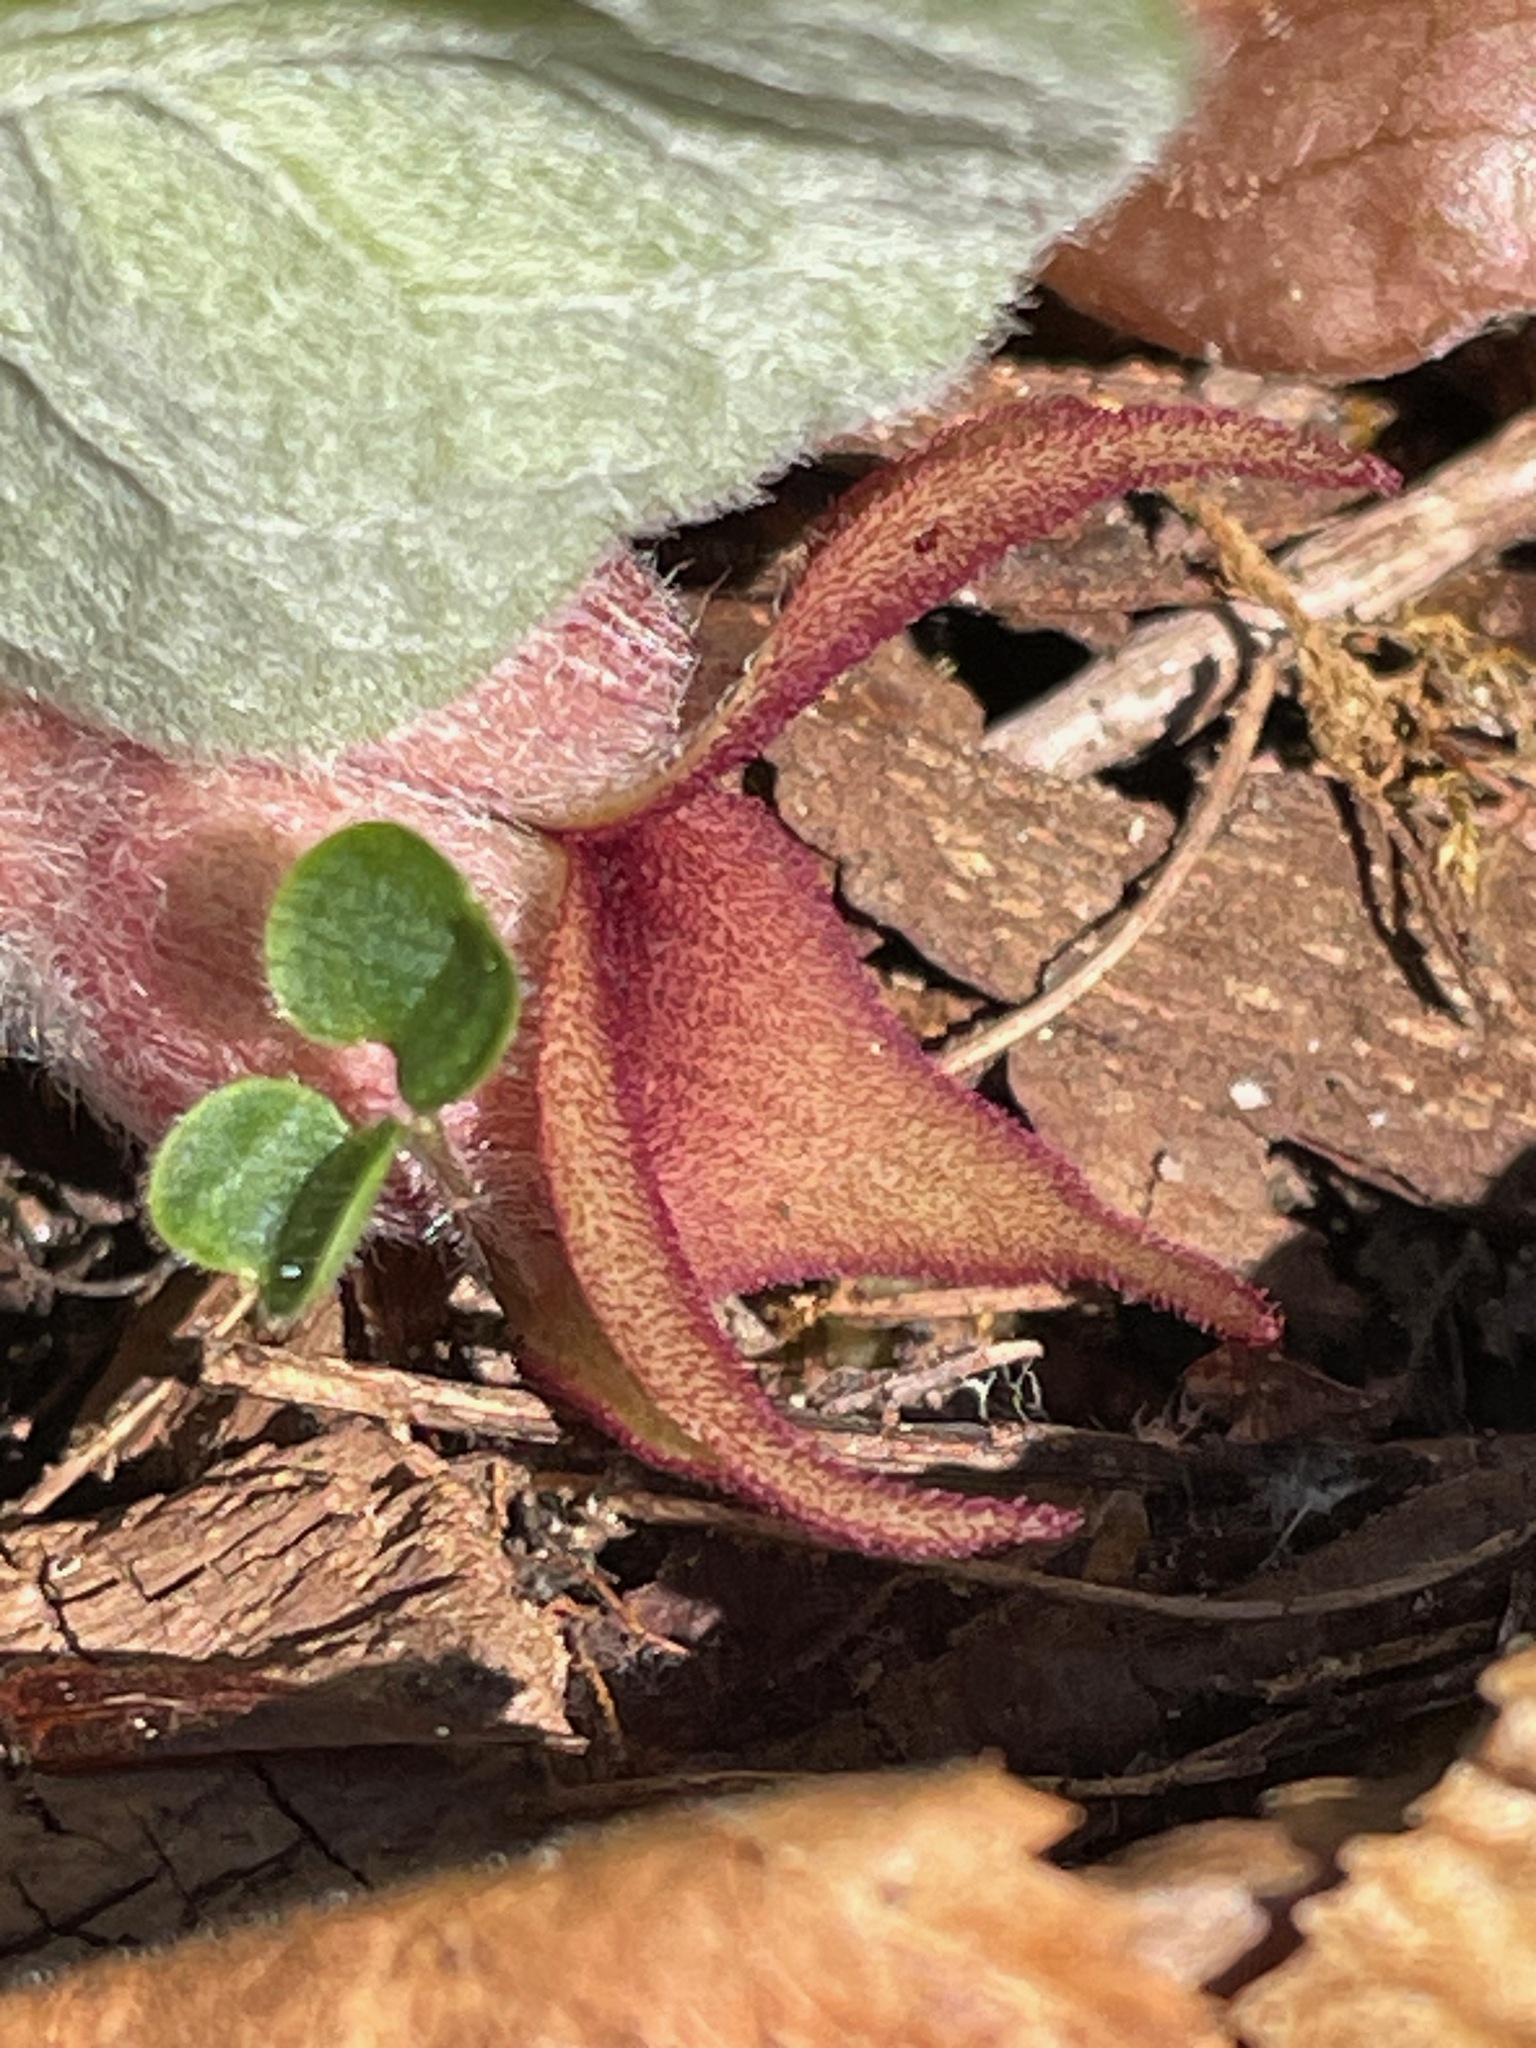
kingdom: Plantae
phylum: Tracheophyta
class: Magnoliopsida
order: Piperales
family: Aristolochiaceae
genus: Asarum
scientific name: Asarum canadense
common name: Wild ginger
